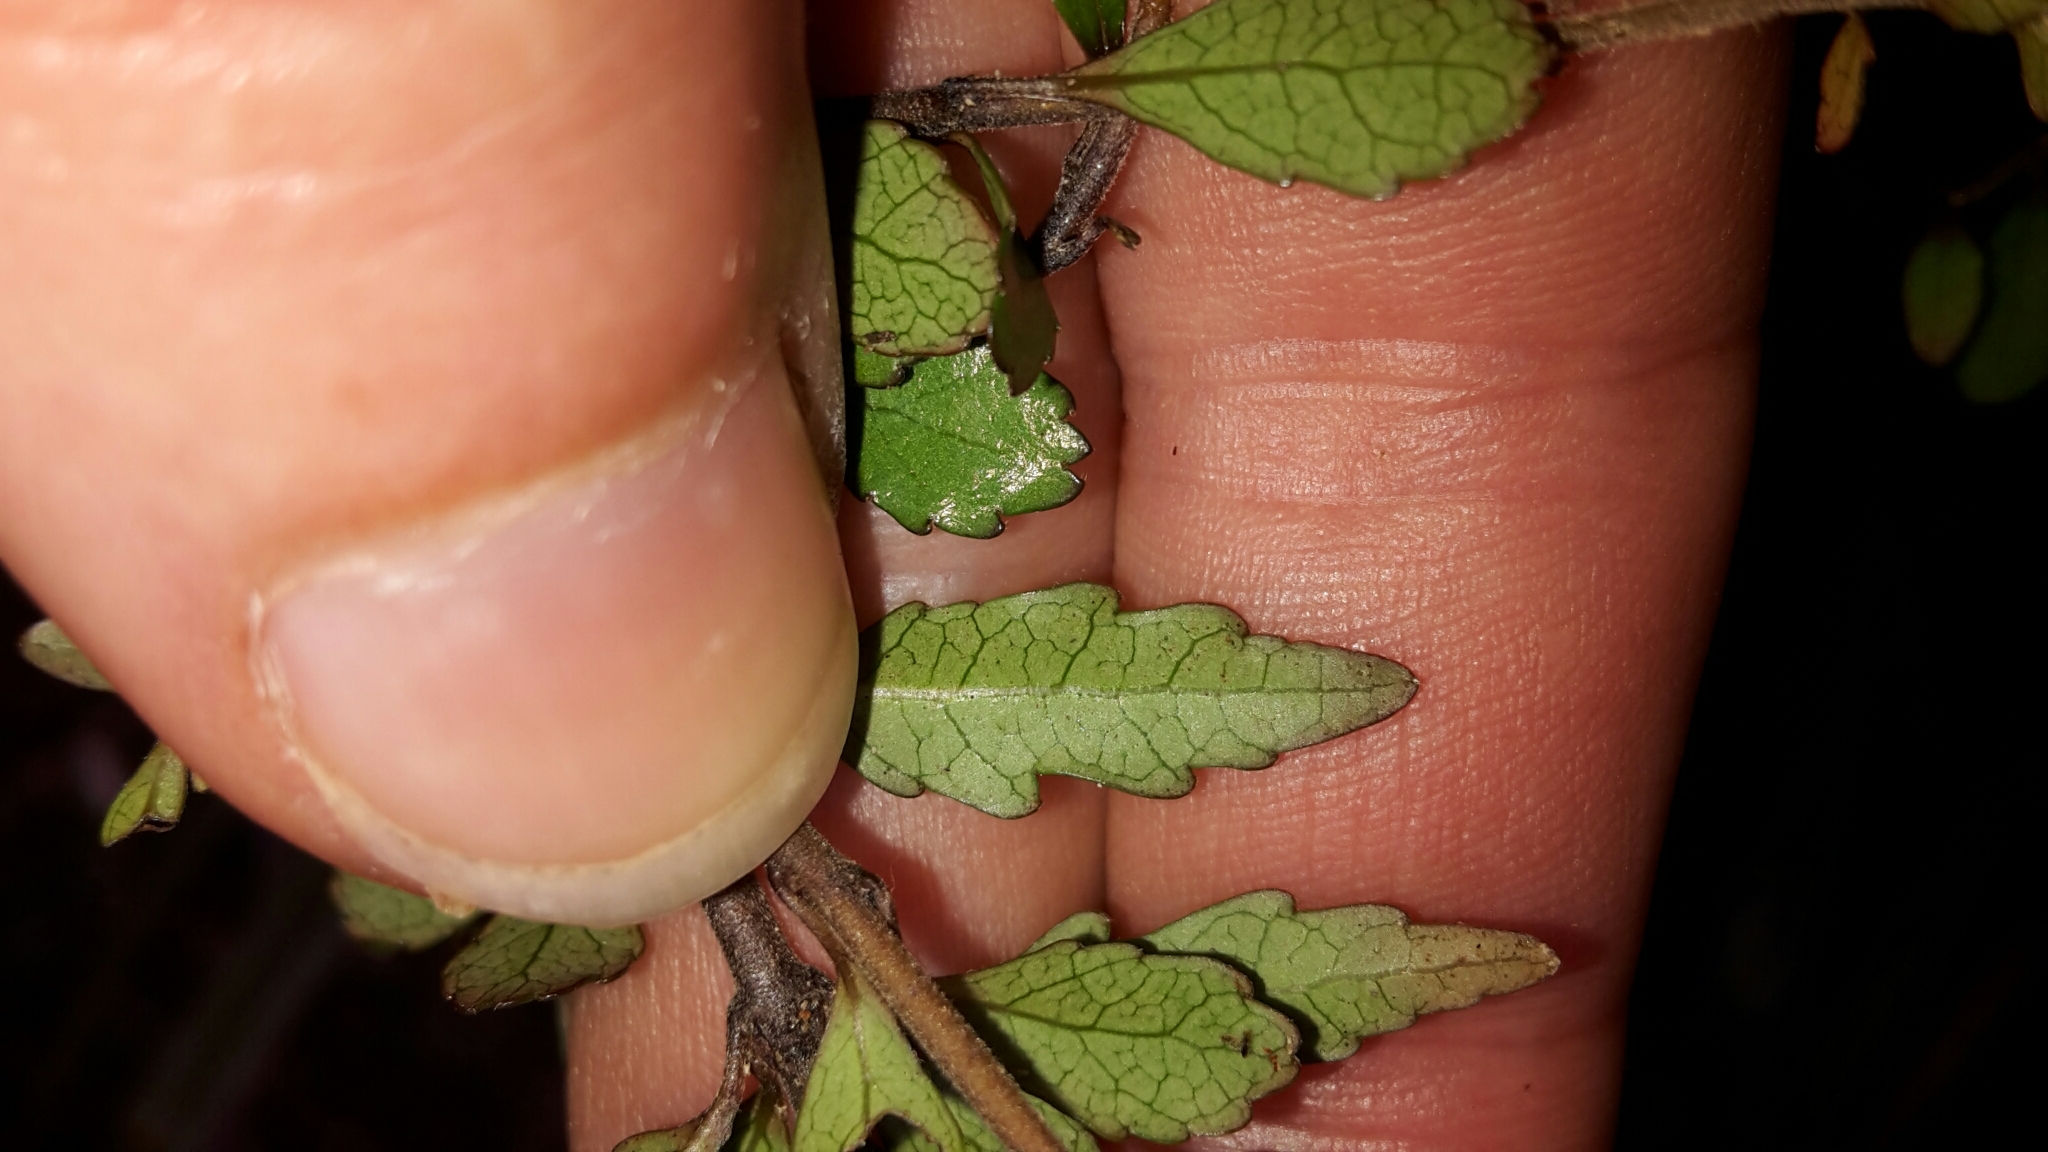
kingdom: Plantae
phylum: Tracheophyta
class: Magnoliopsida
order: Oxalidales
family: Elaeocarpaceae
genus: Aristotelia
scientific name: Aristotelia fruticosa
